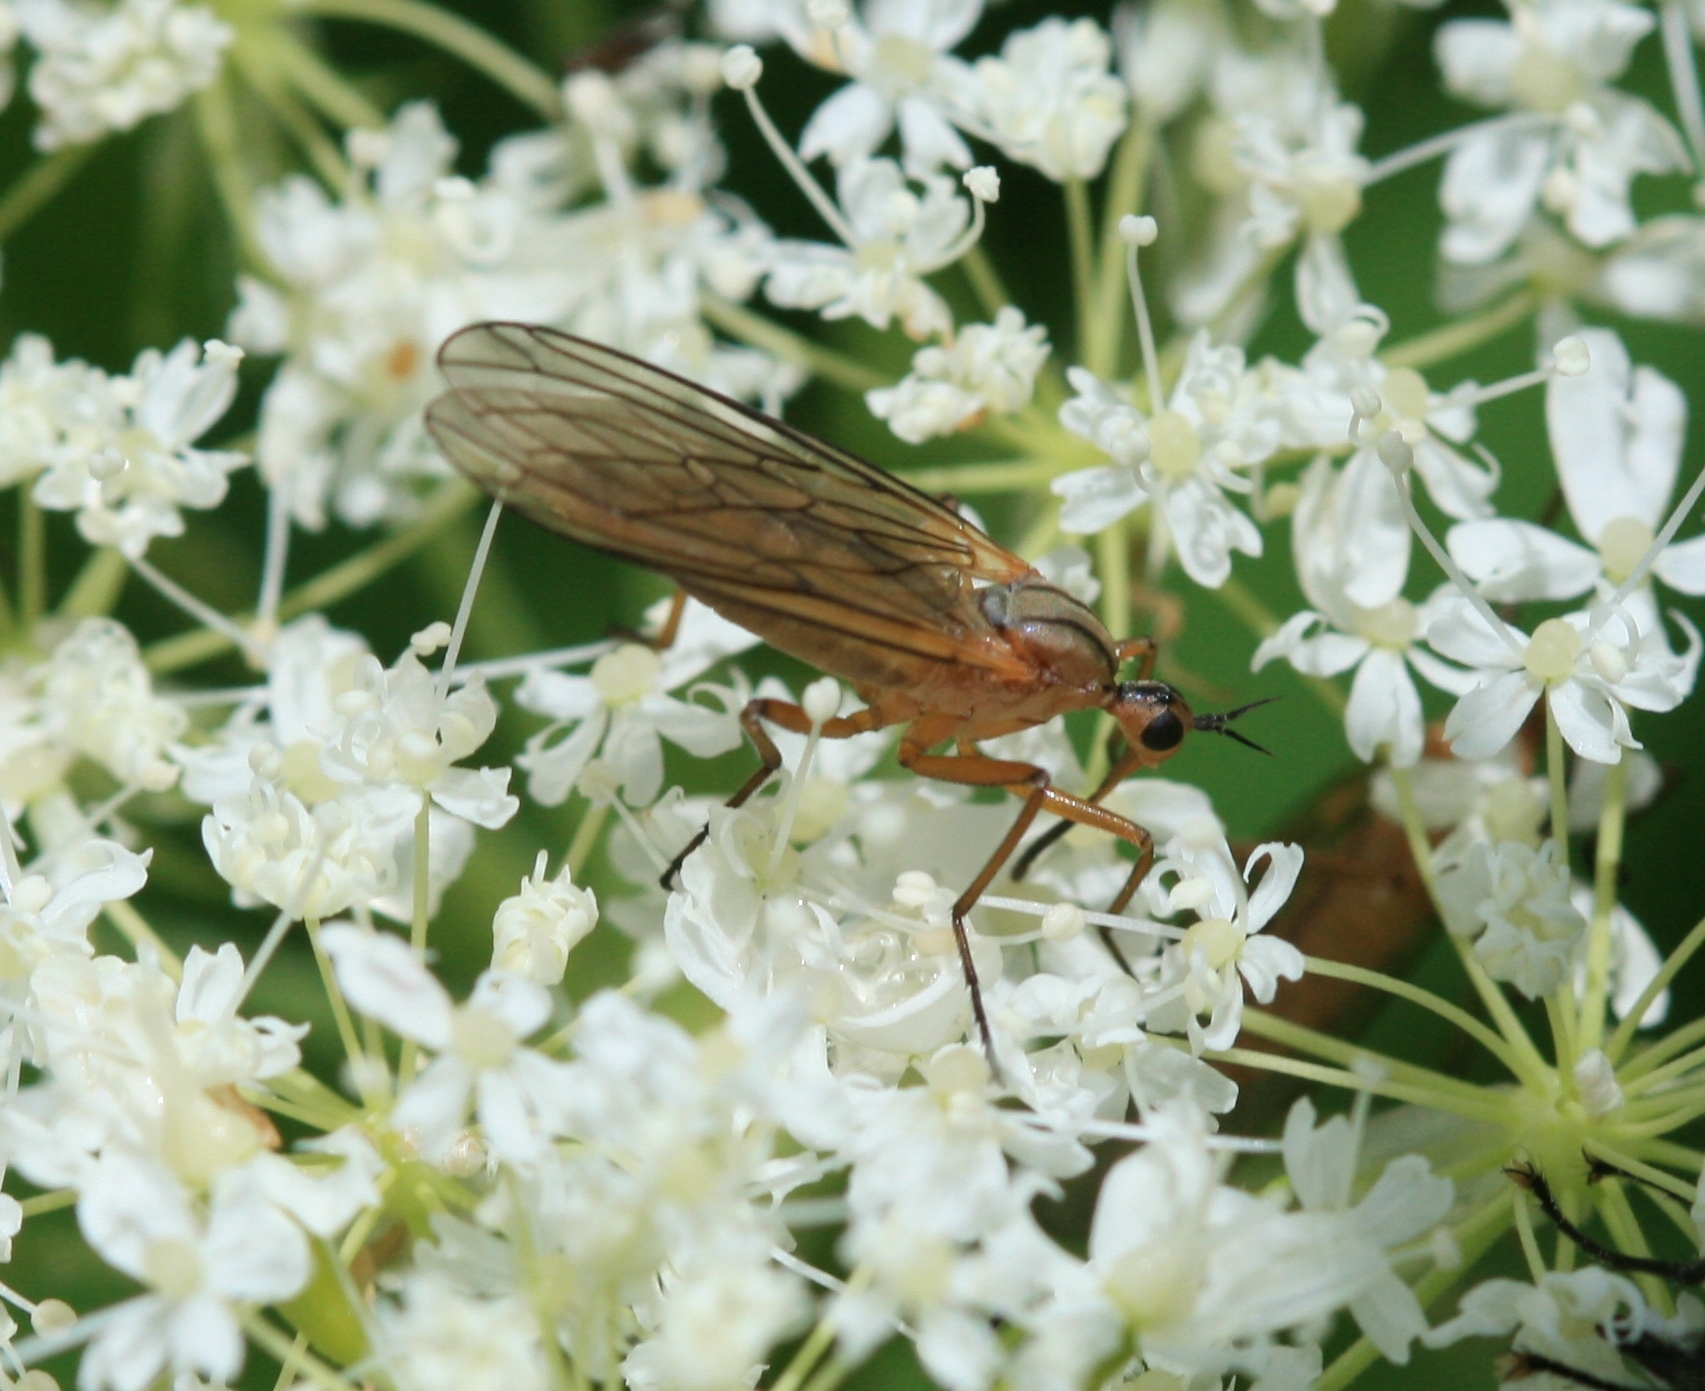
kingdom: Animalia
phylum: Arthropoda
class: Insecta
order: Diptera
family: Empididae
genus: Empis
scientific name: Empis diagramma
